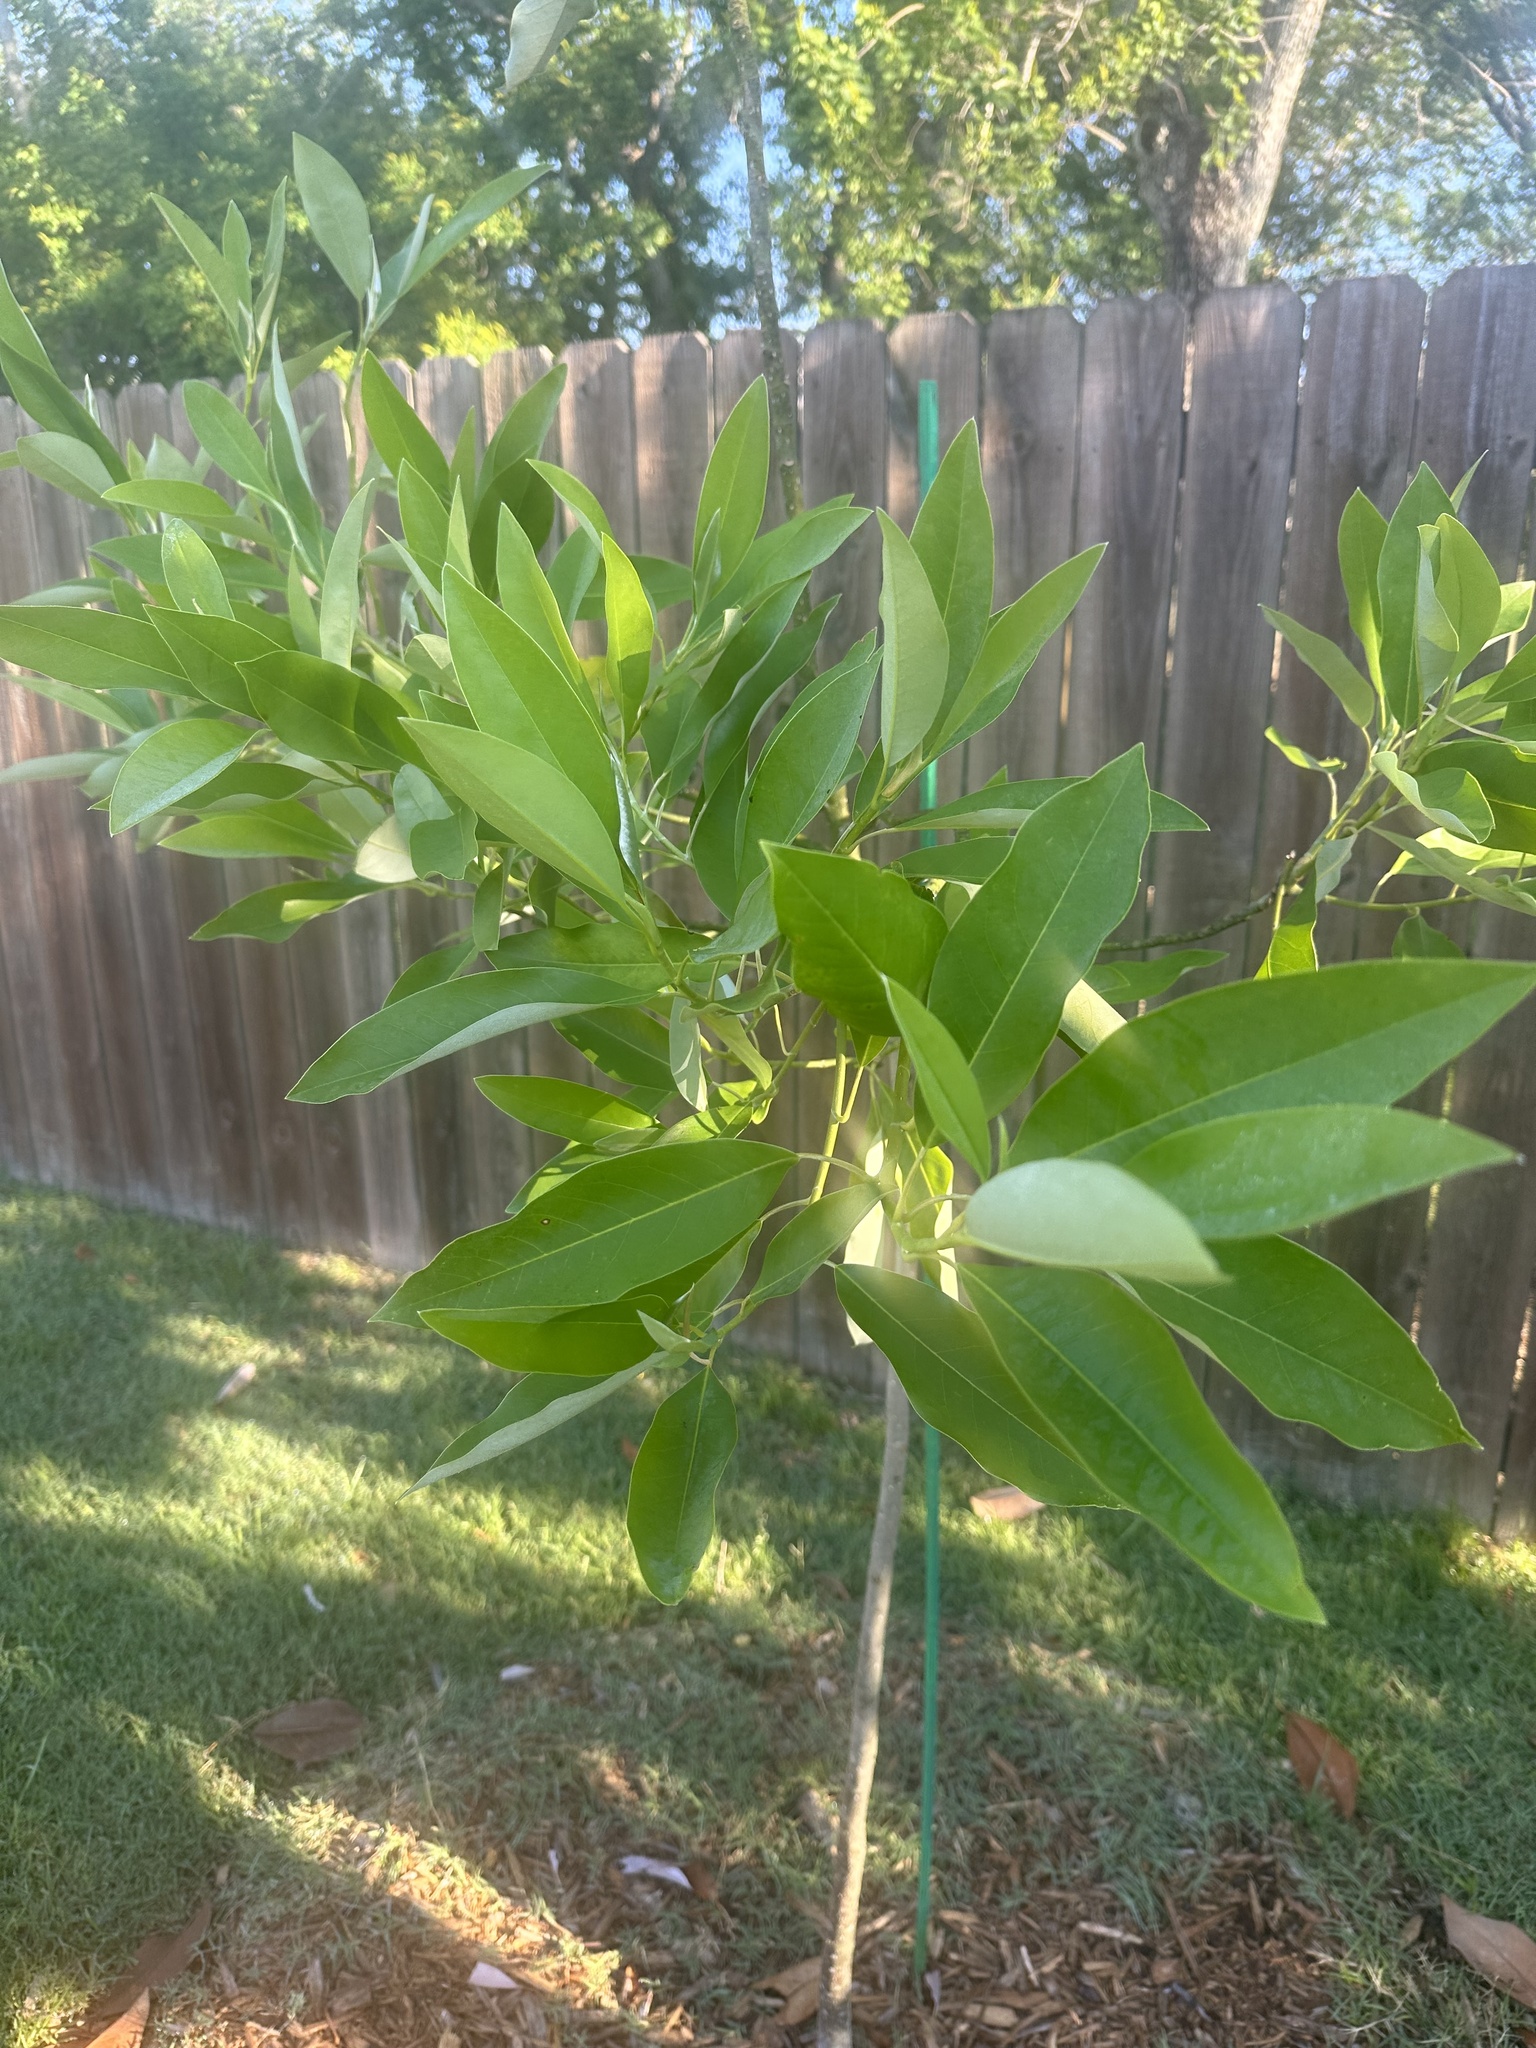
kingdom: Plantae
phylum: Tracheophyta
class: Magnoliopsida
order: Magnoliales
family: Magnoliaceae
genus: Magnolia
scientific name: Magnolia virginiana
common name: Swamp bay
